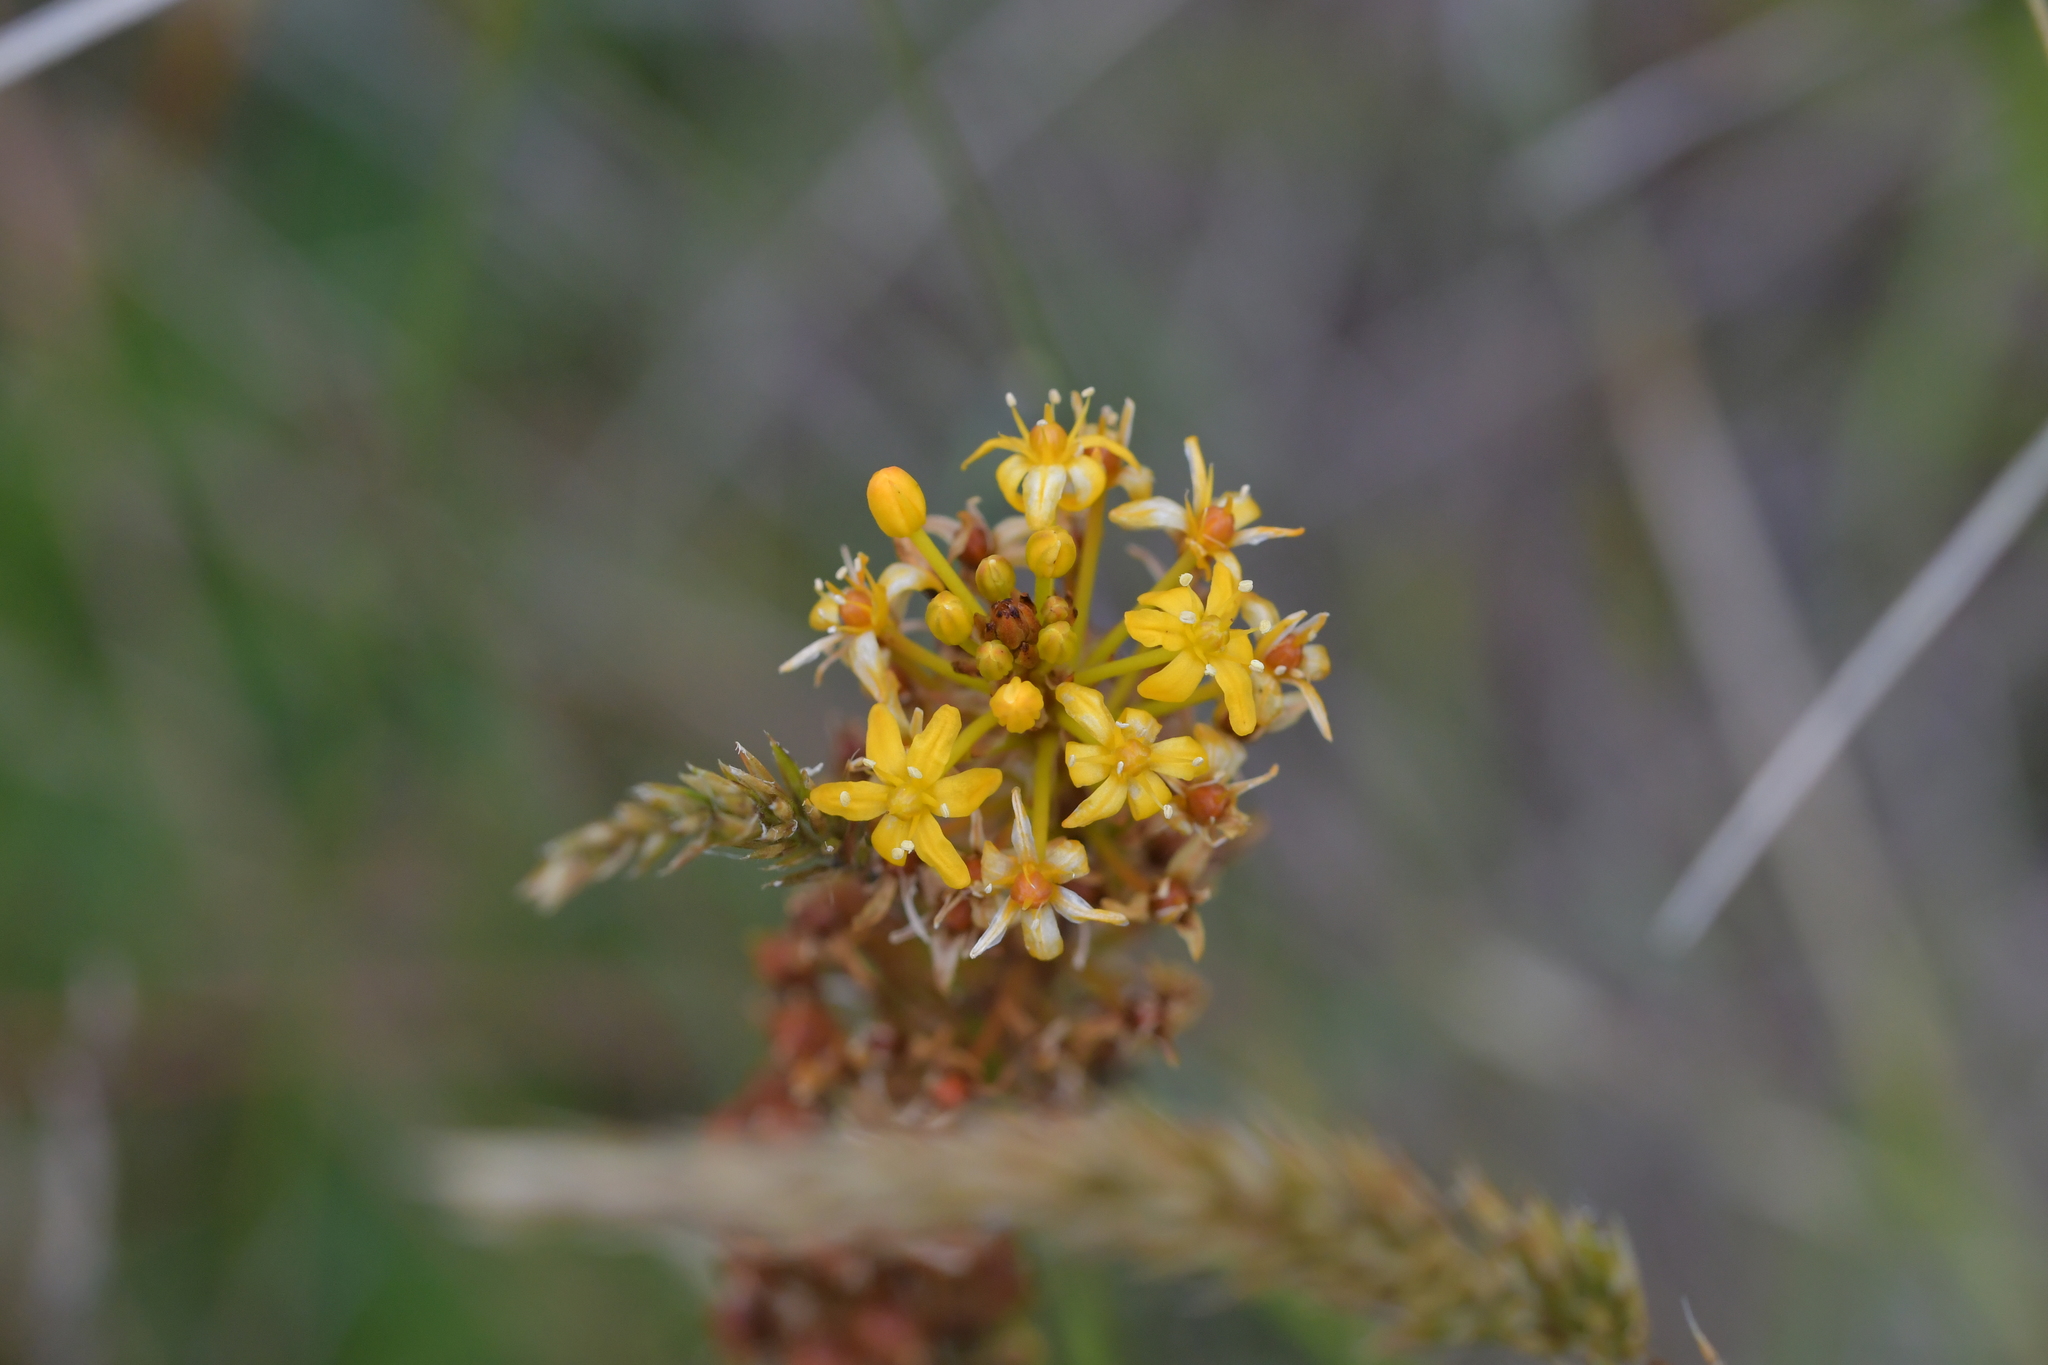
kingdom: Plantae
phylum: Tracheophyta
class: Liliopsida
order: Asparagales
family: Asphodelaceae
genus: Bulbinella
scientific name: Bulbinella angustifolia
